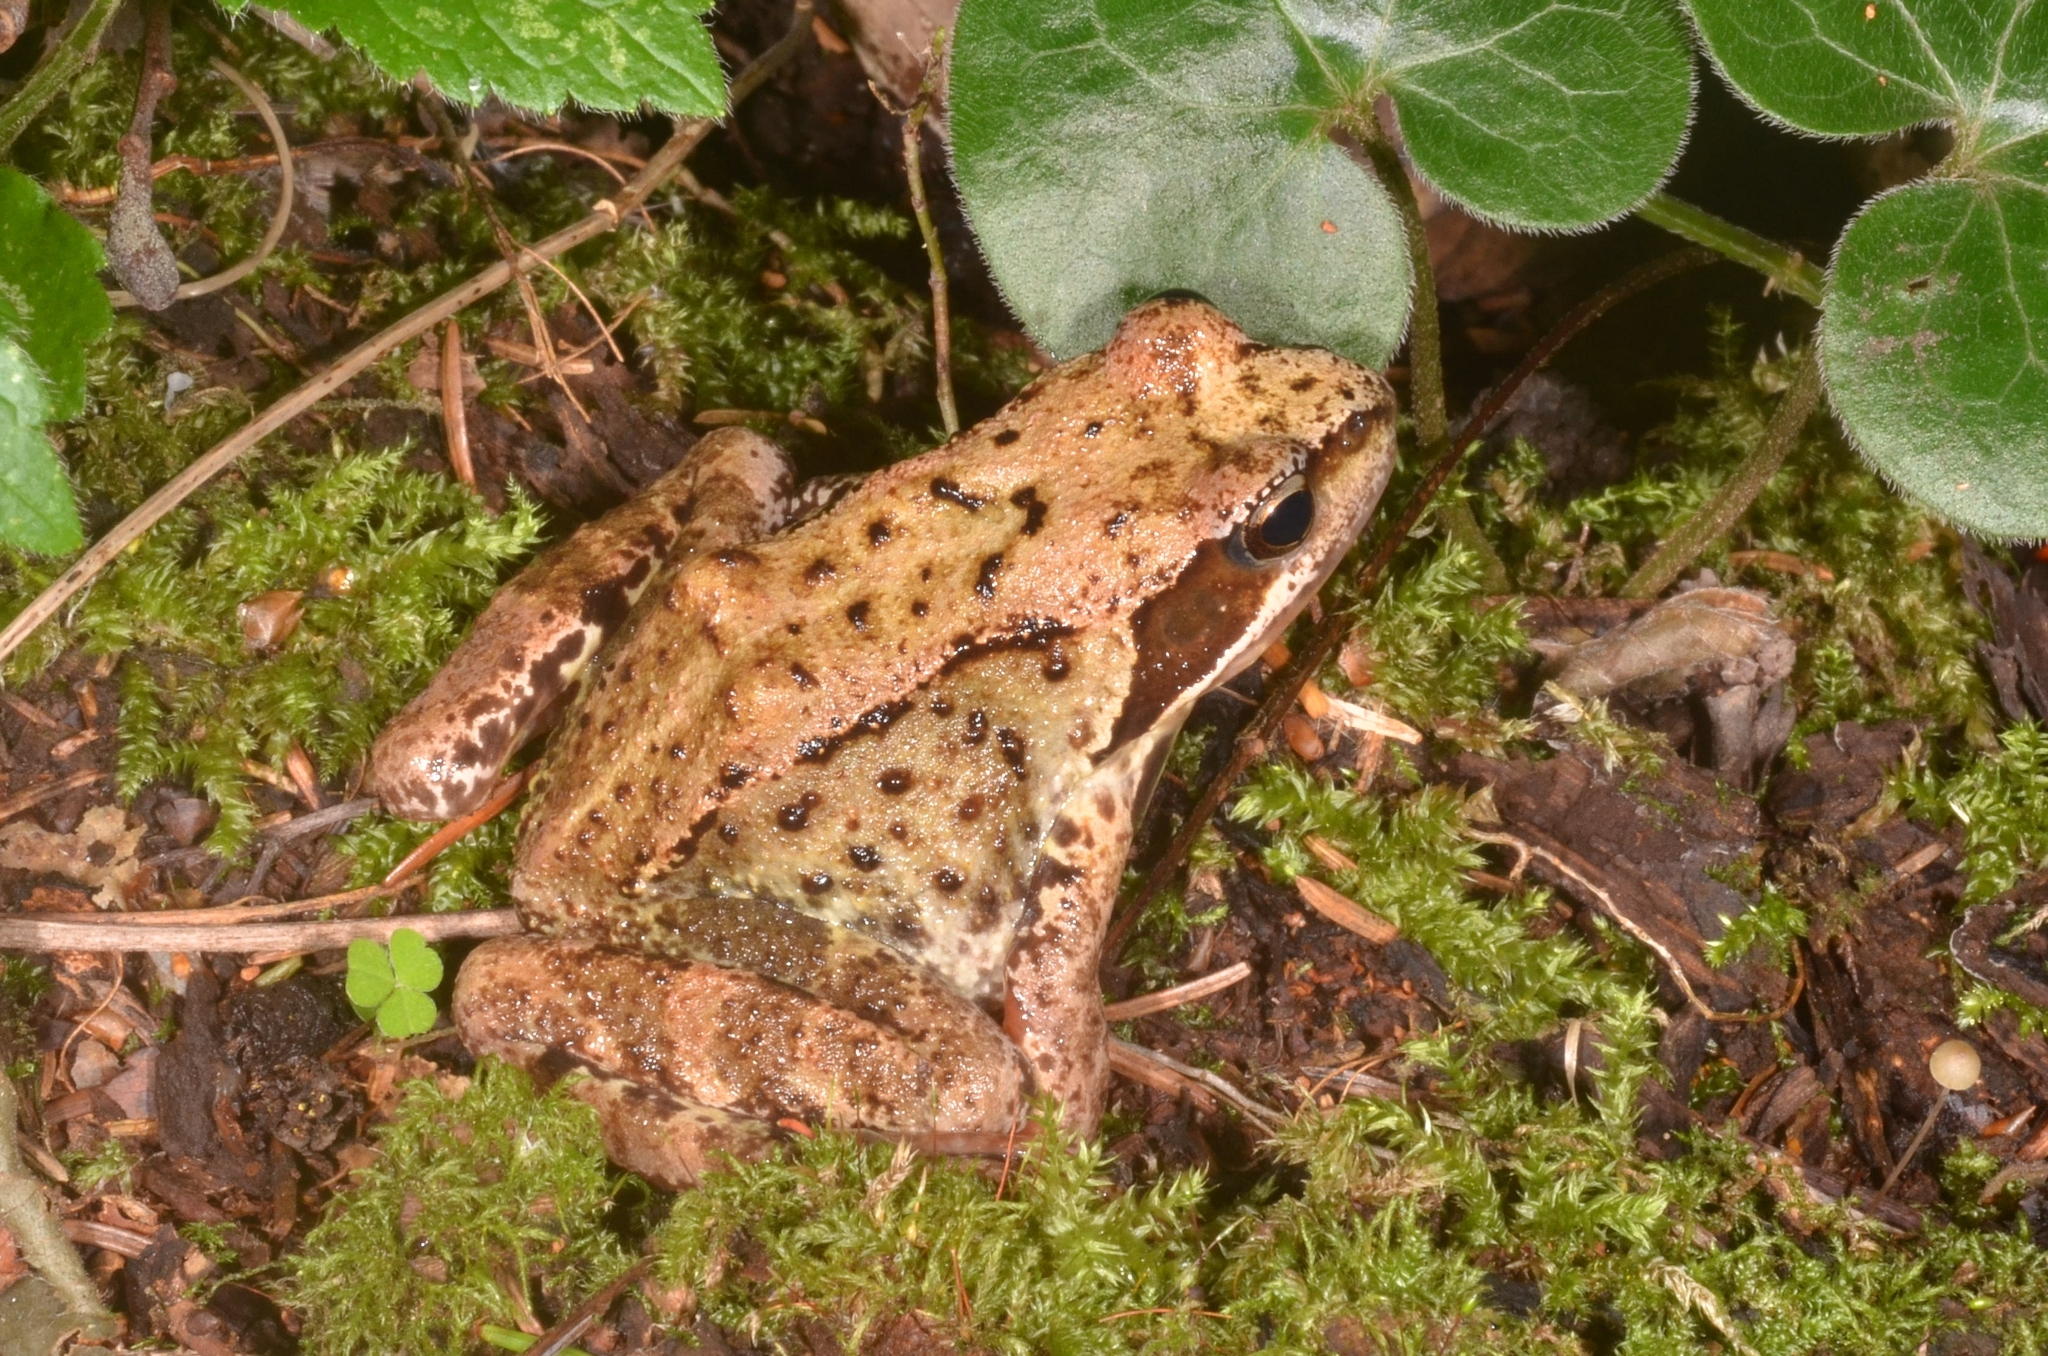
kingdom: Animalia
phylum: Chordata
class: Amphibia
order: Anura
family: Ranidae
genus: Rana
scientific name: Rana temporaria
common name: Common frog
